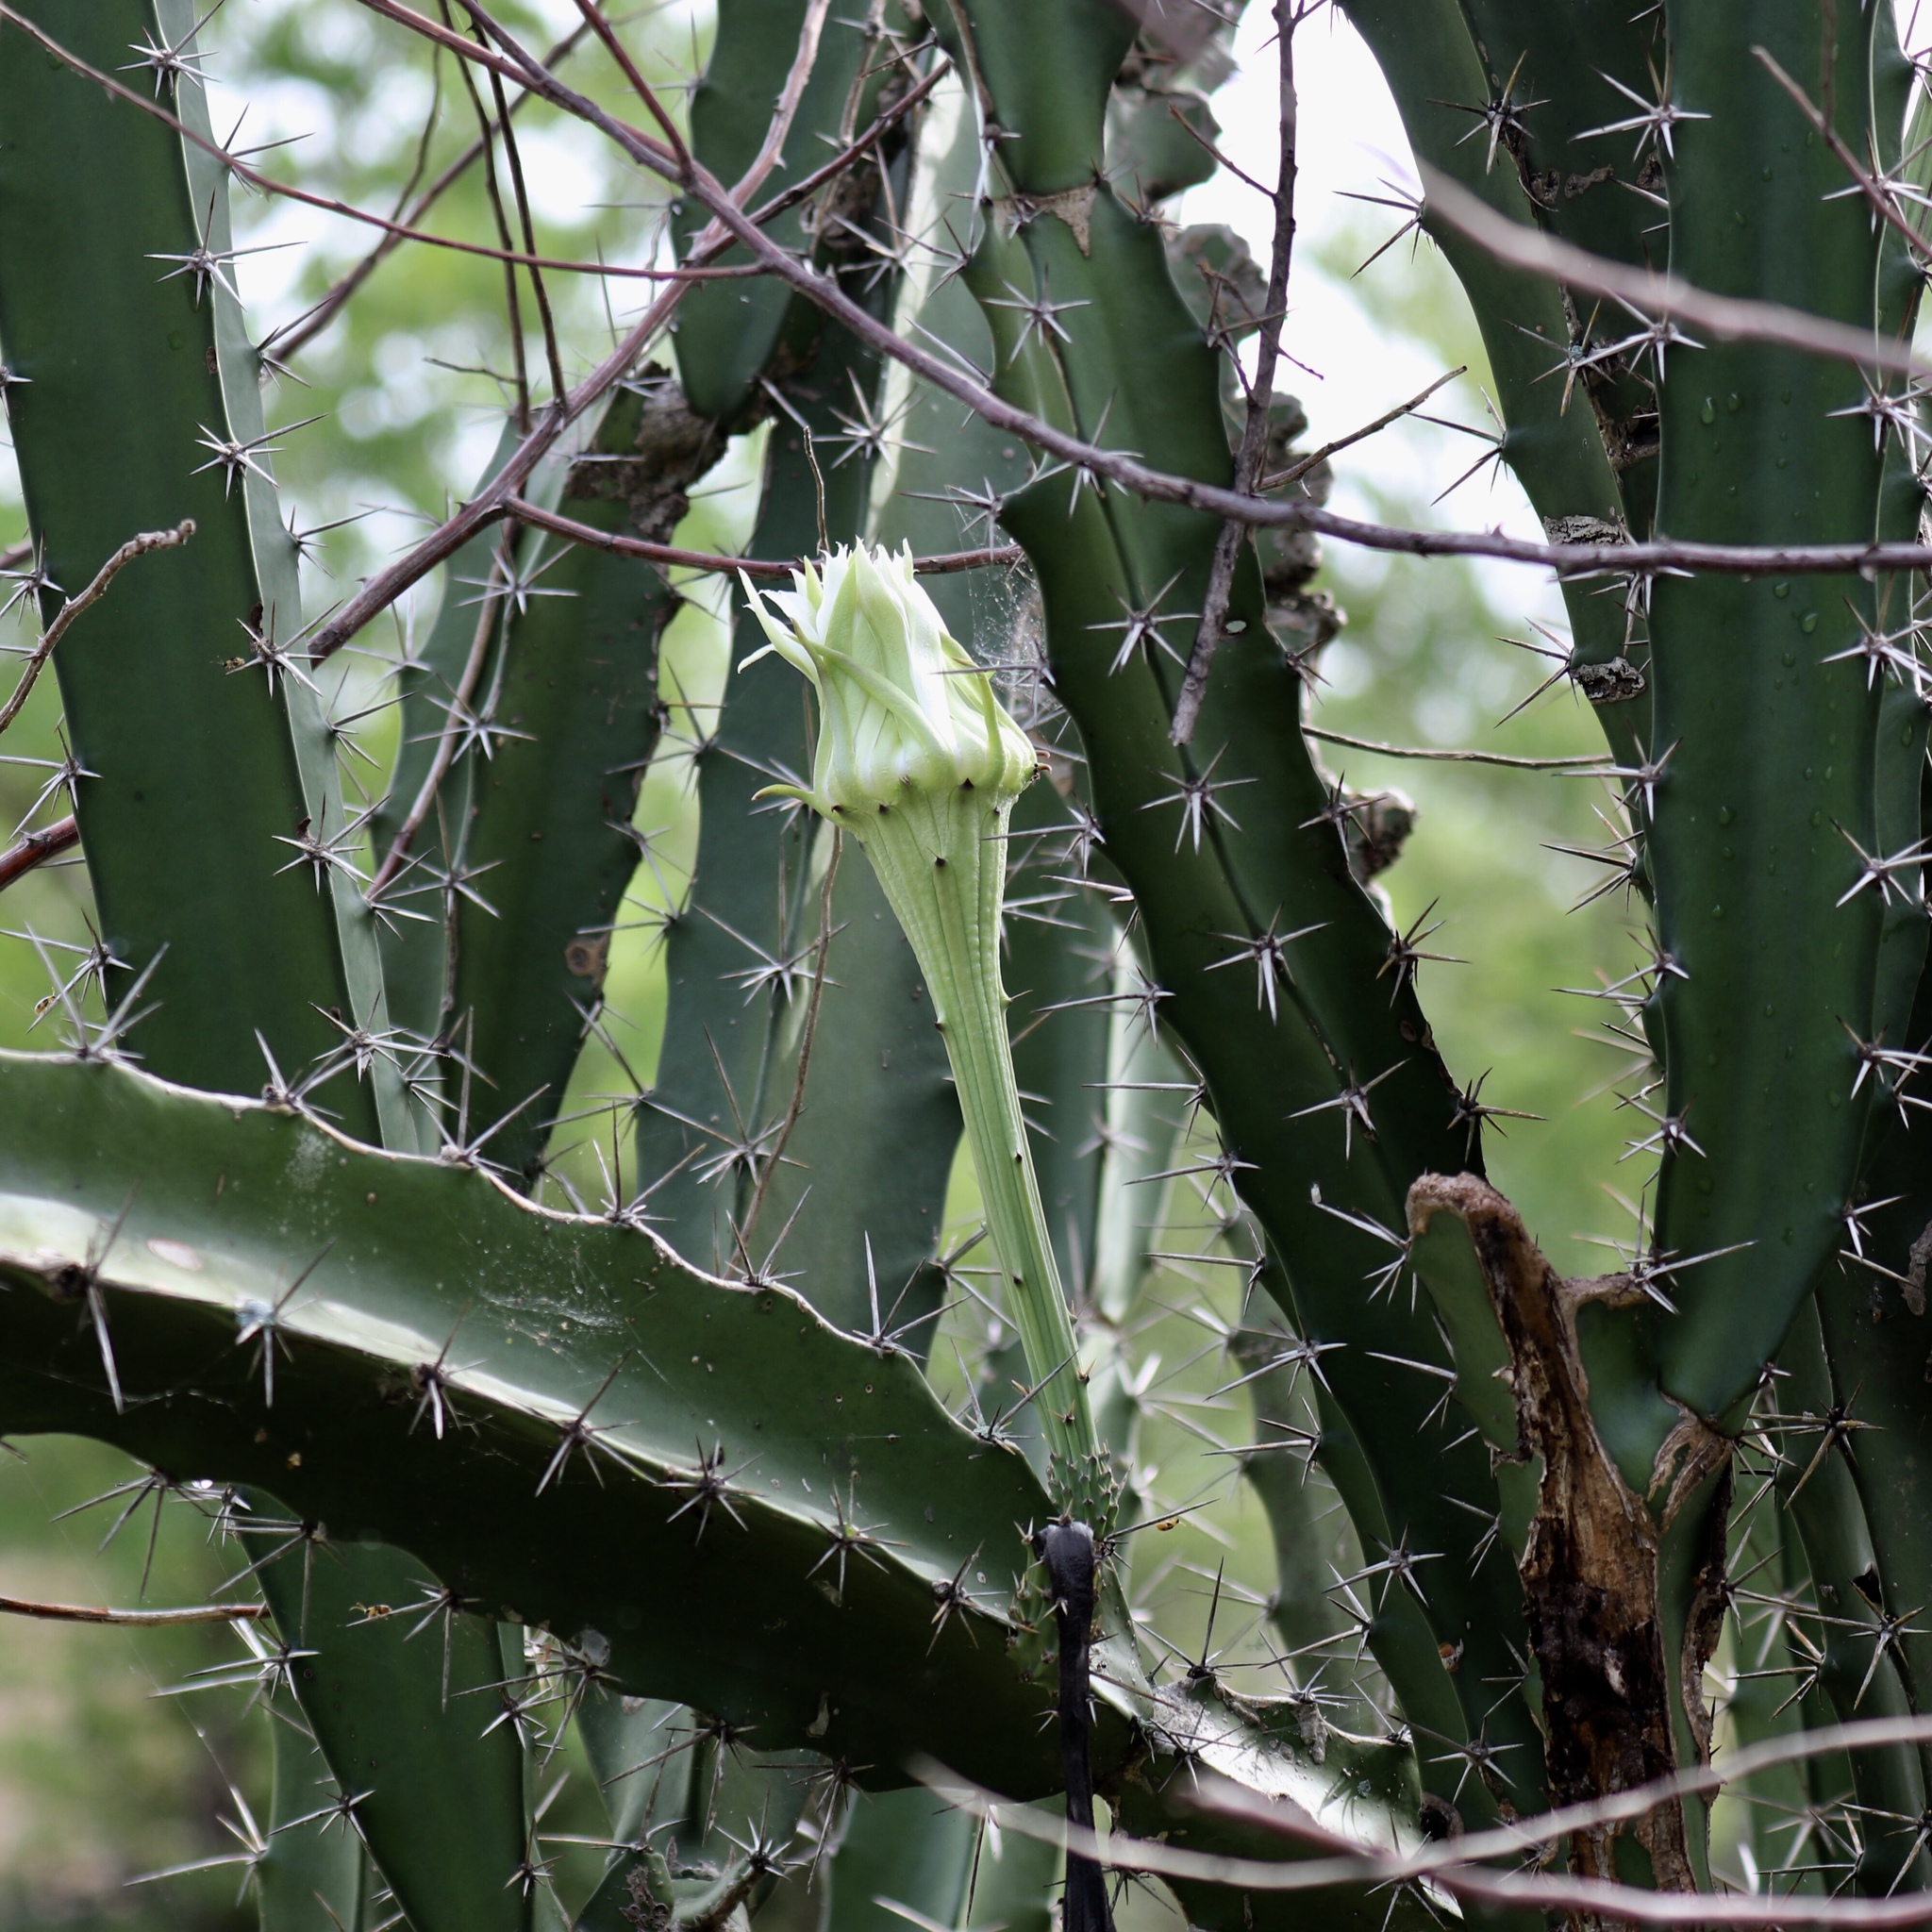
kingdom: Plantae
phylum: Tracheophyta
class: Magnoliopsida
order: Caryophyllales
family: Cactaceae
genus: Acanthocereus
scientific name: Acanthocereus tetragonus
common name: Triangle cactus
